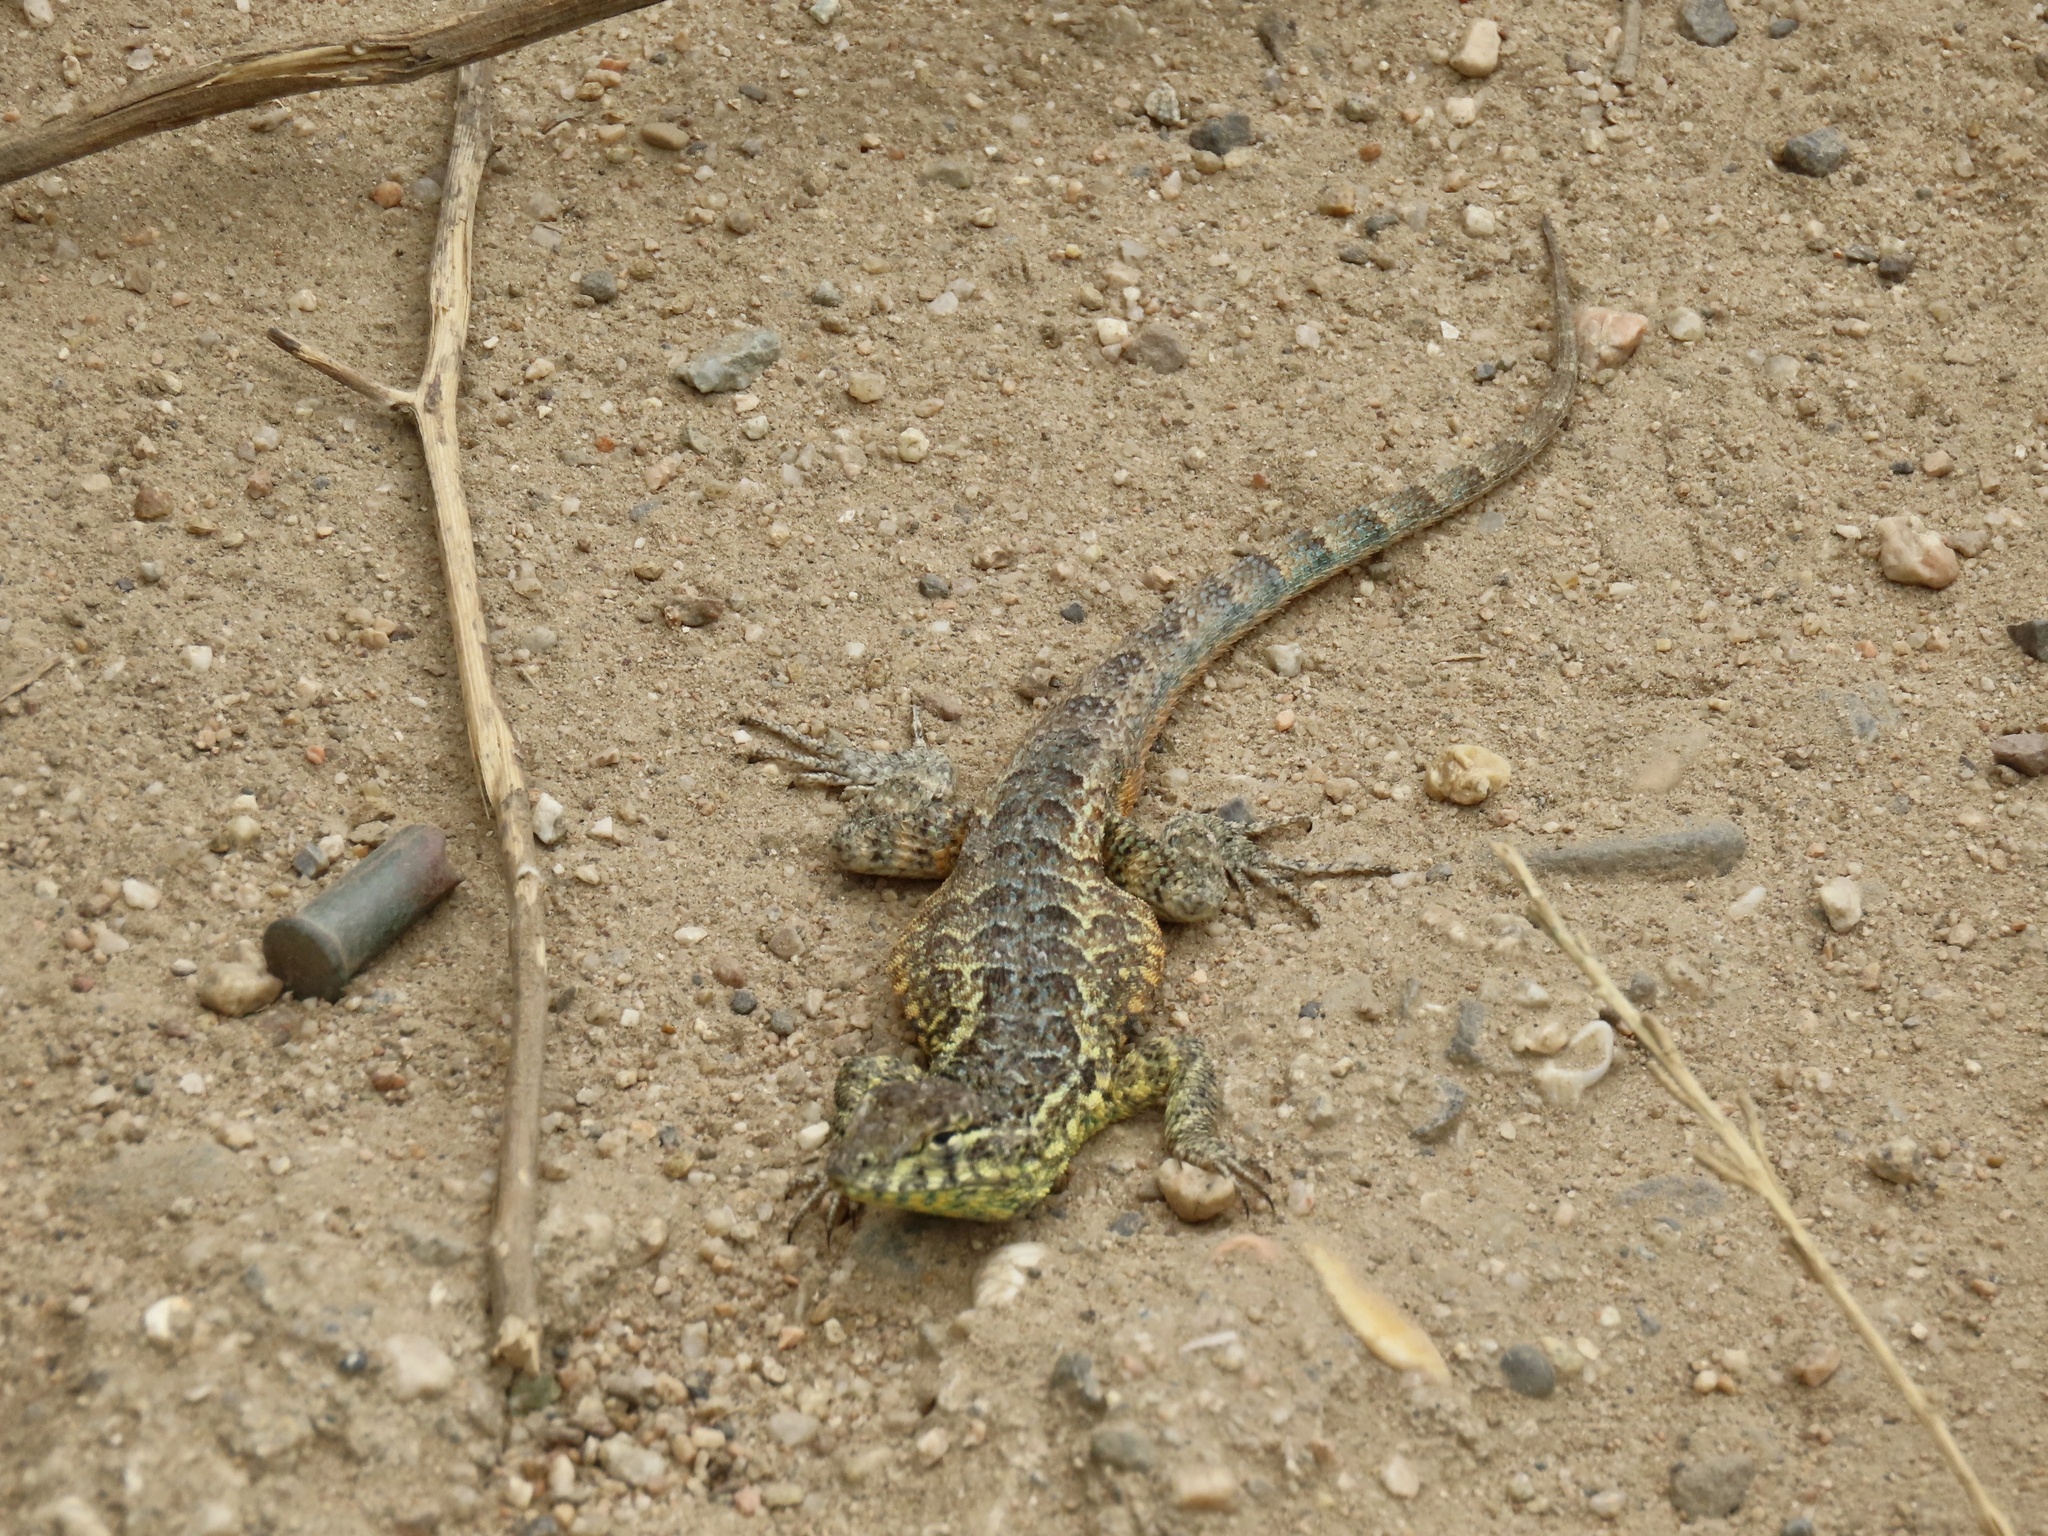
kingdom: Animalia
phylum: Chordata
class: Squamata
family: Phrynosomatidae
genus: Uta
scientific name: Uta stansburiana
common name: Side-blotched lizard
